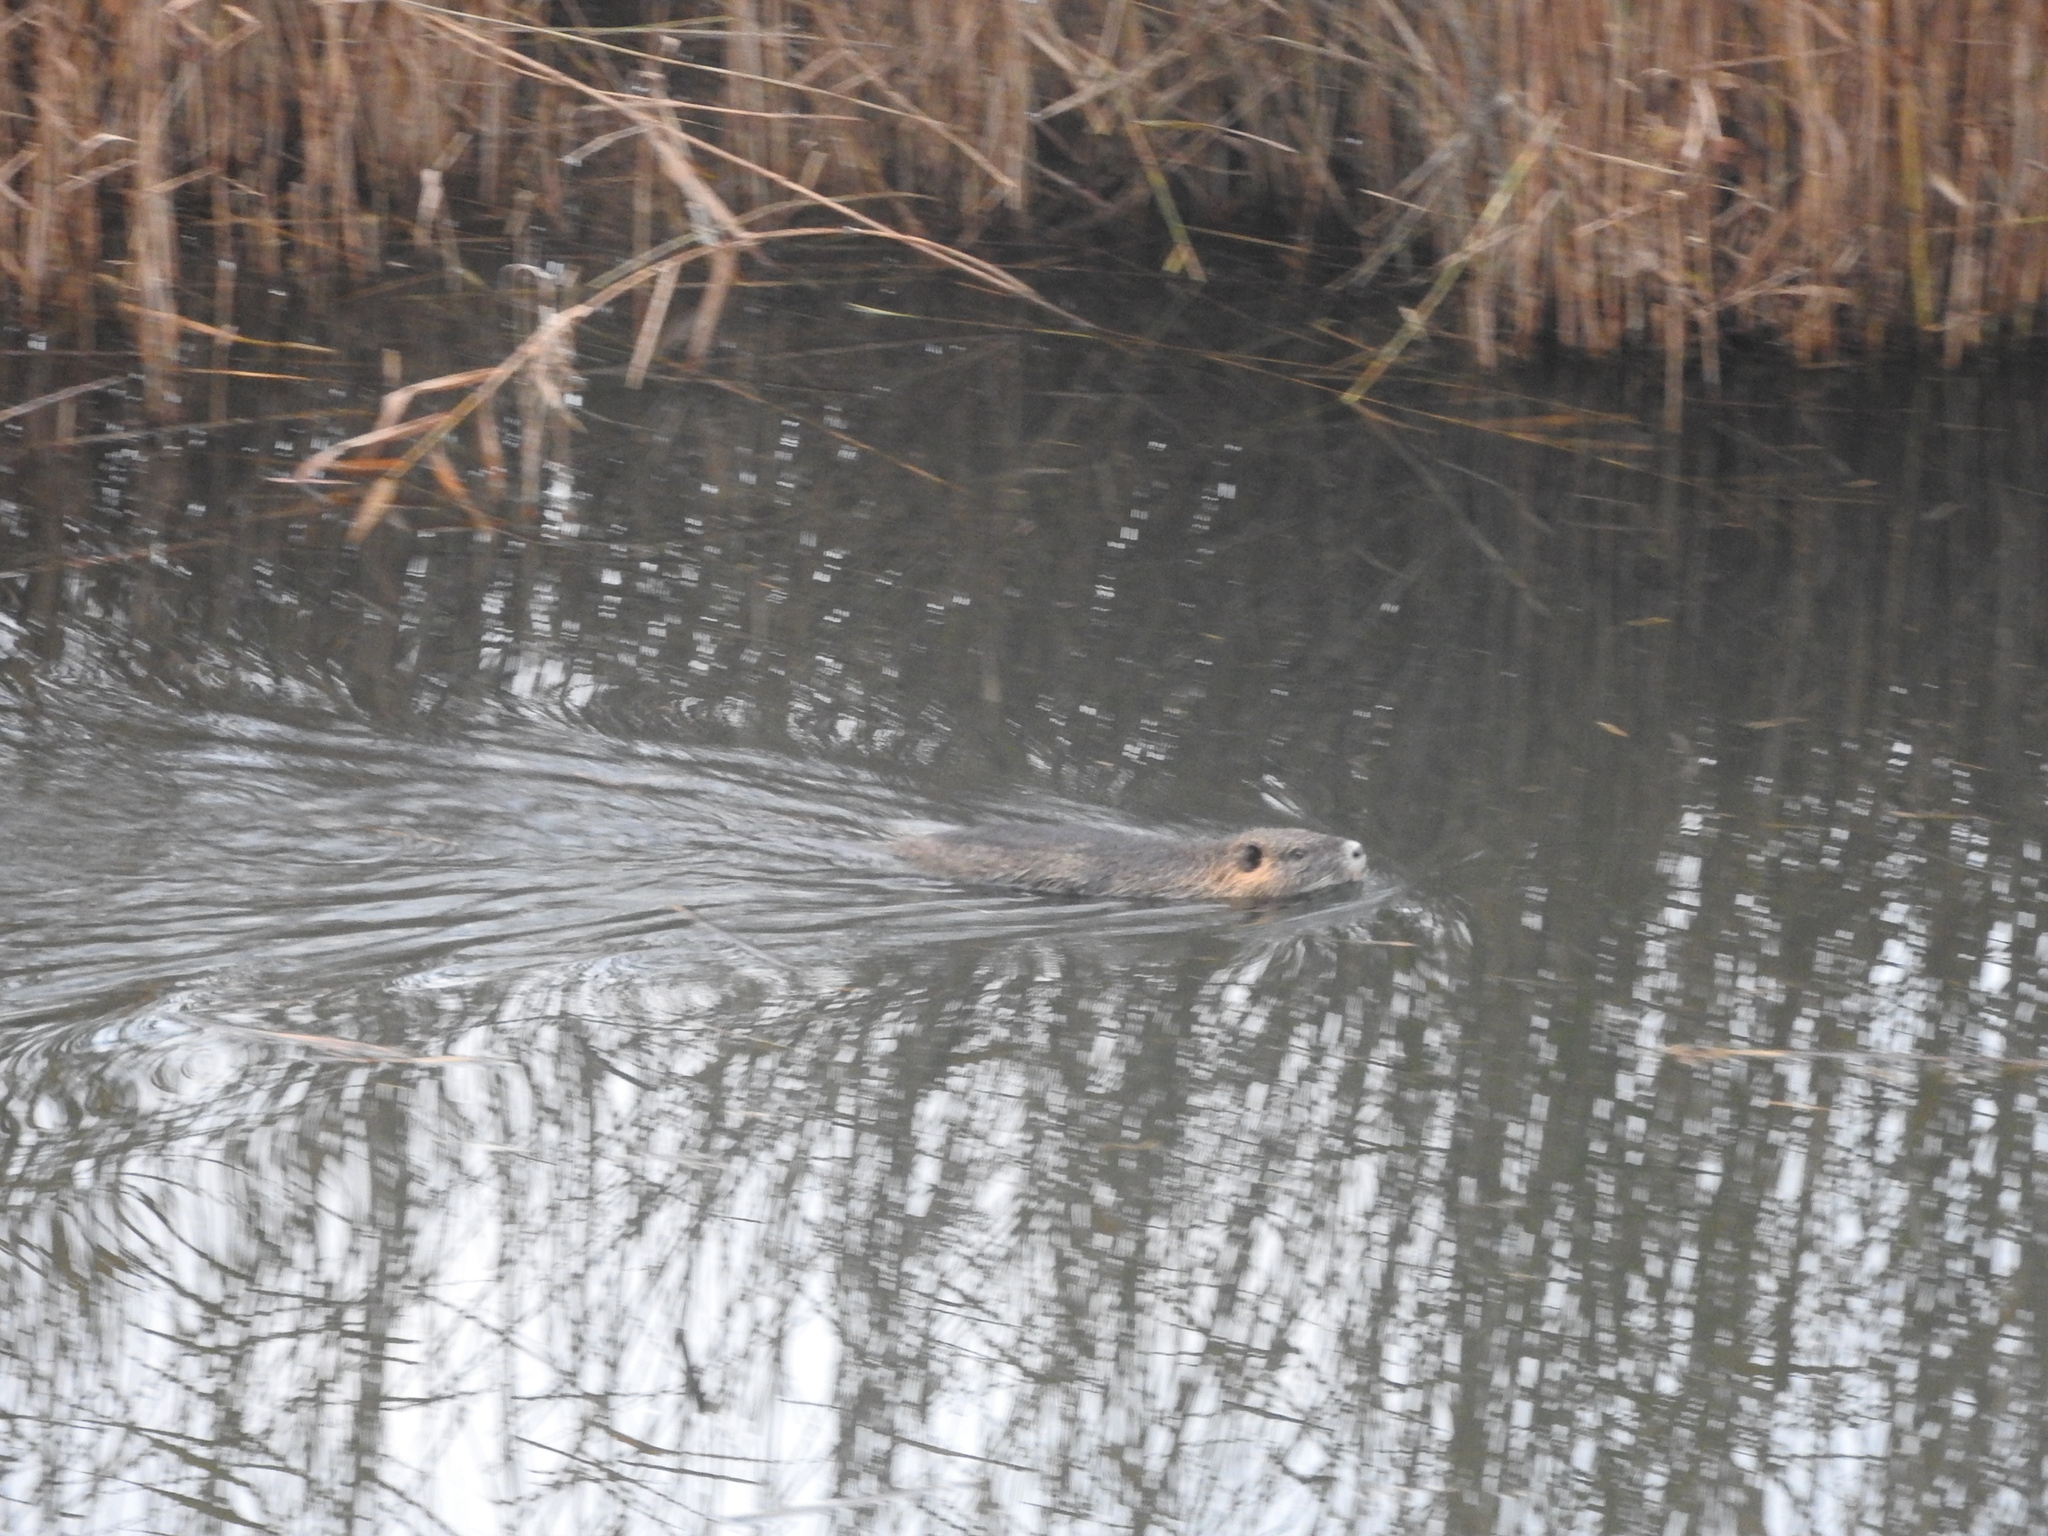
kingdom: Animalia
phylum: Chordata
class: Mammalia
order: Rodentia
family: Myocastoridae
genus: Myocastor
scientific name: Myocastor coypus
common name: Coypu
